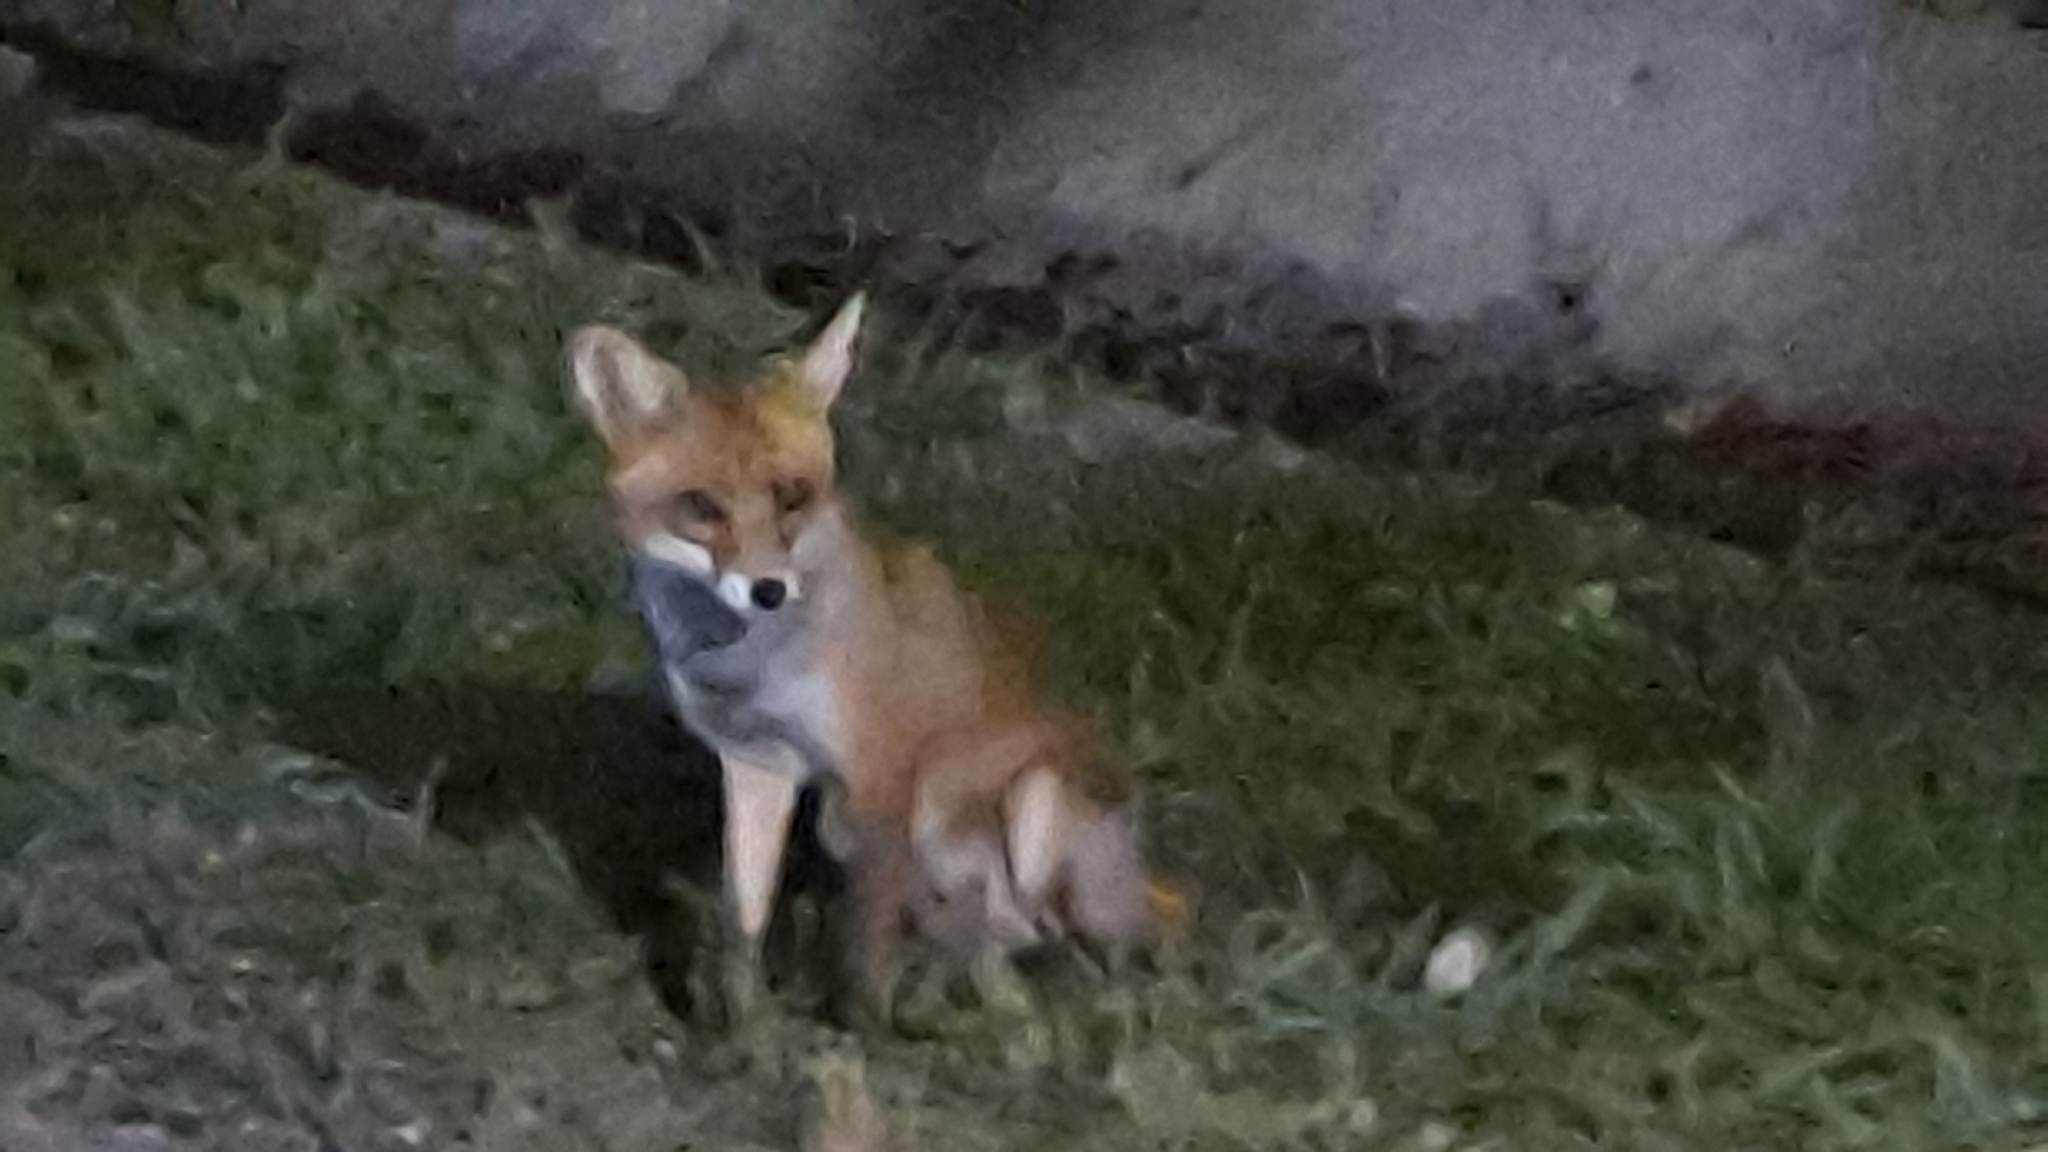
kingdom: Animalia
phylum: Chordata
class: Mammalia
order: Carnivora
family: Canidae
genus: Vulpes
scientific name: Vulpes vulpes
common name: Red fox
